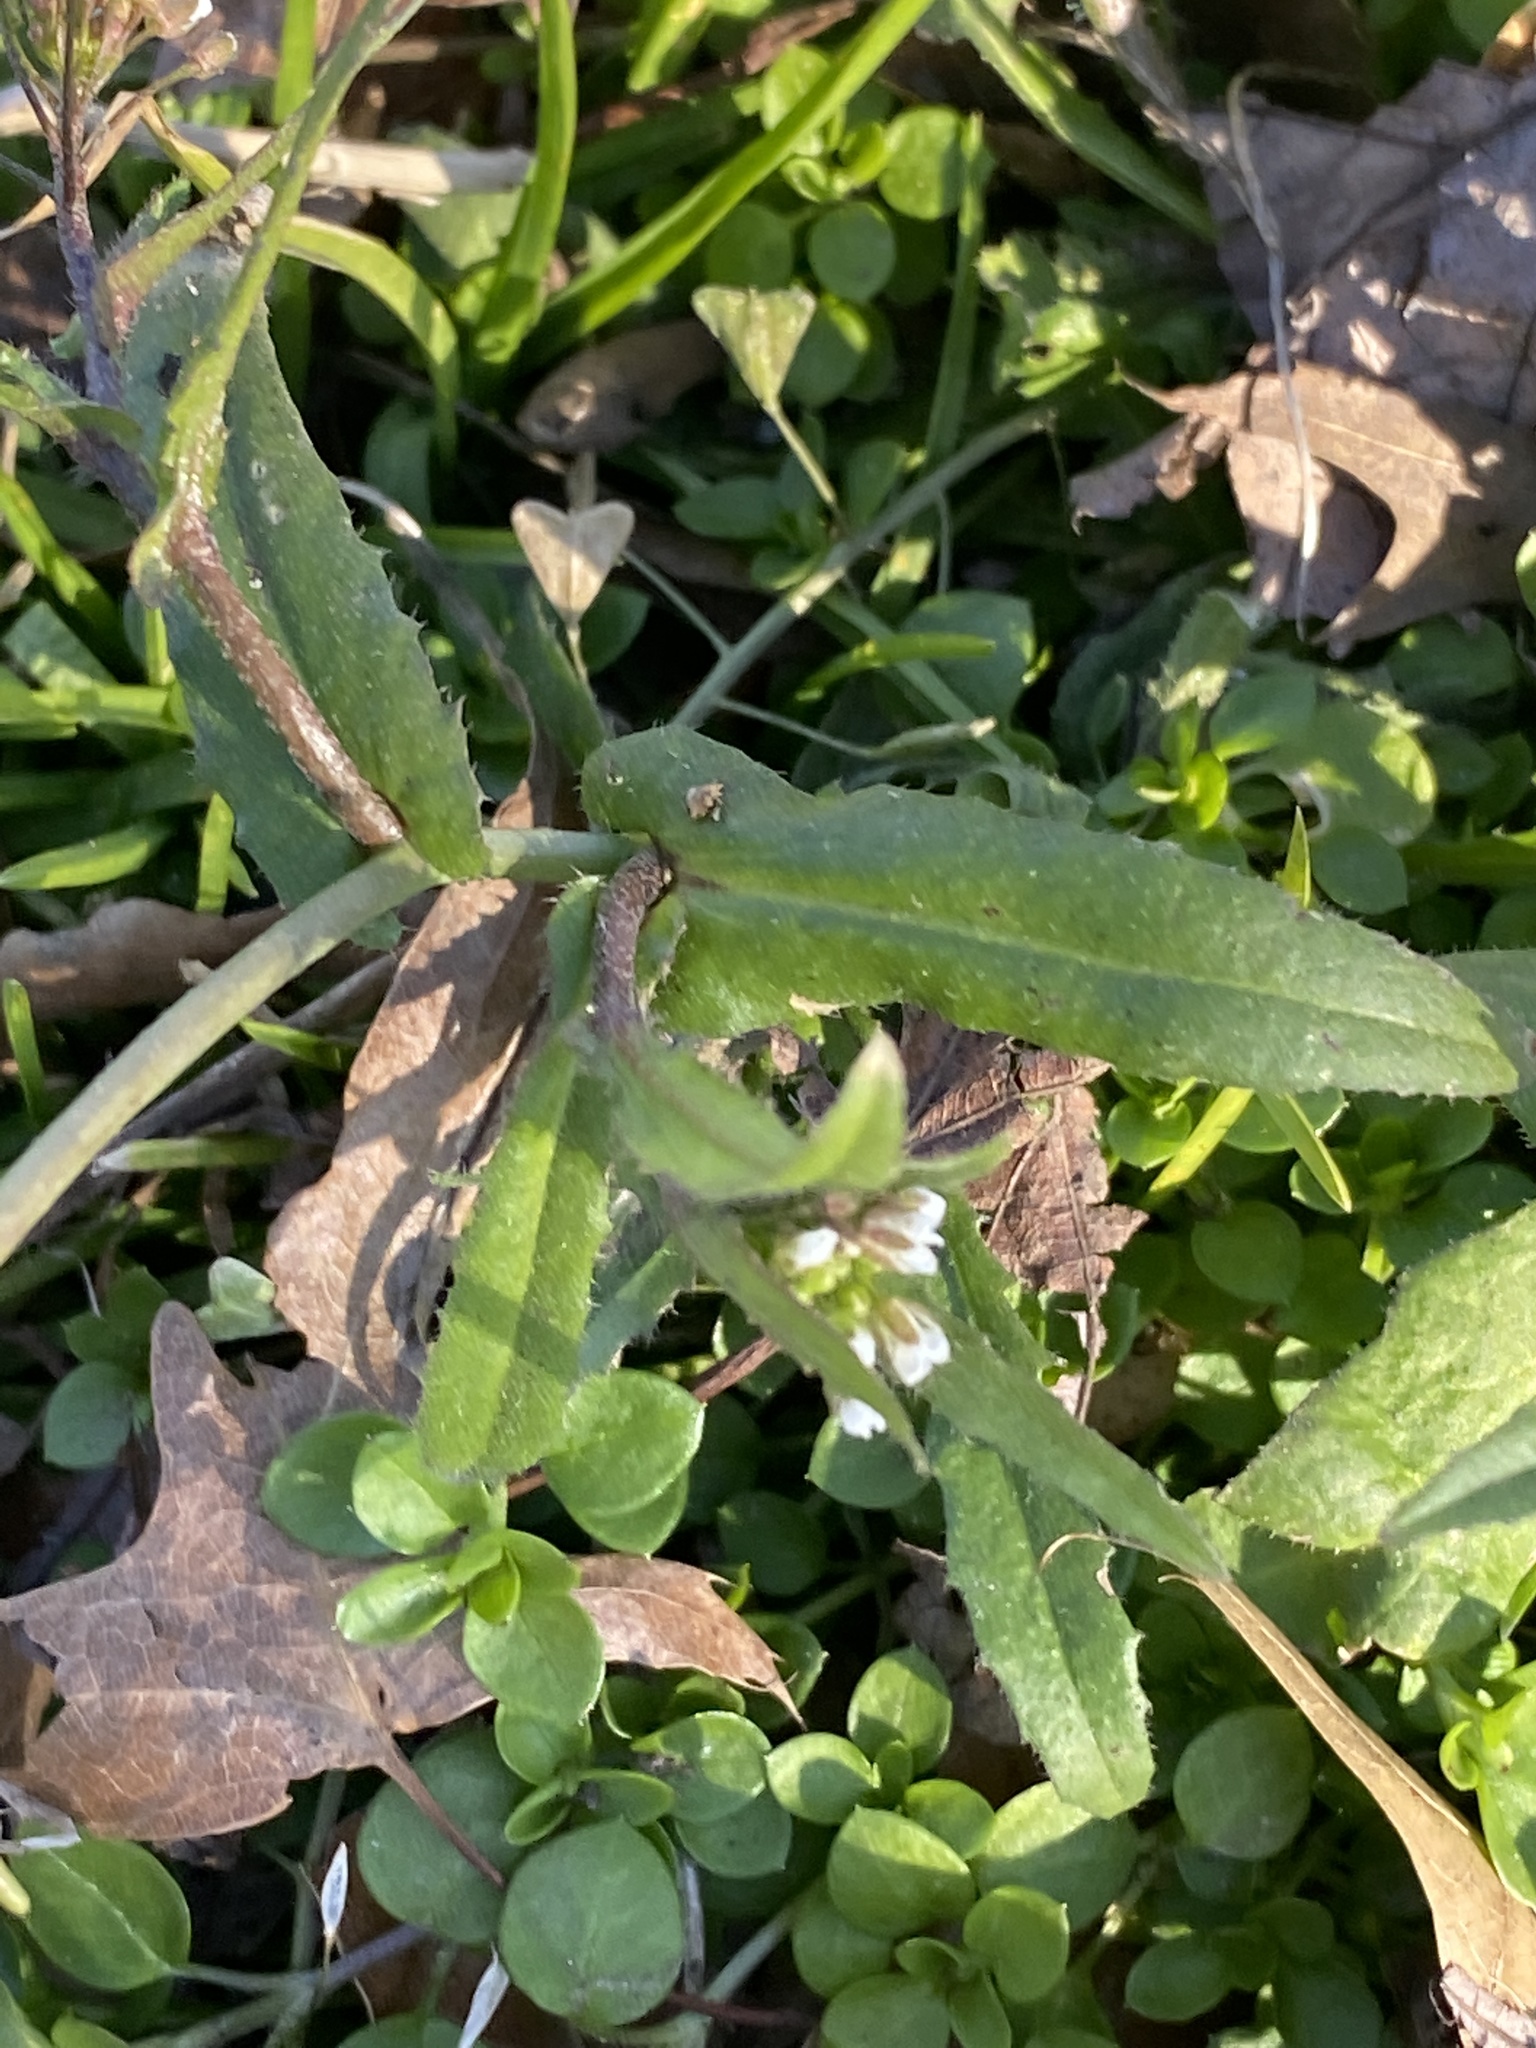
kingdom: Plantae
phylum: Tracheophyta
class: Magnoliopsida
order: Brassicales
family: Brassicaceae
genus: Capsella
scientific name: Capsella bursa-pastoris
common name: Shepherd's purse
